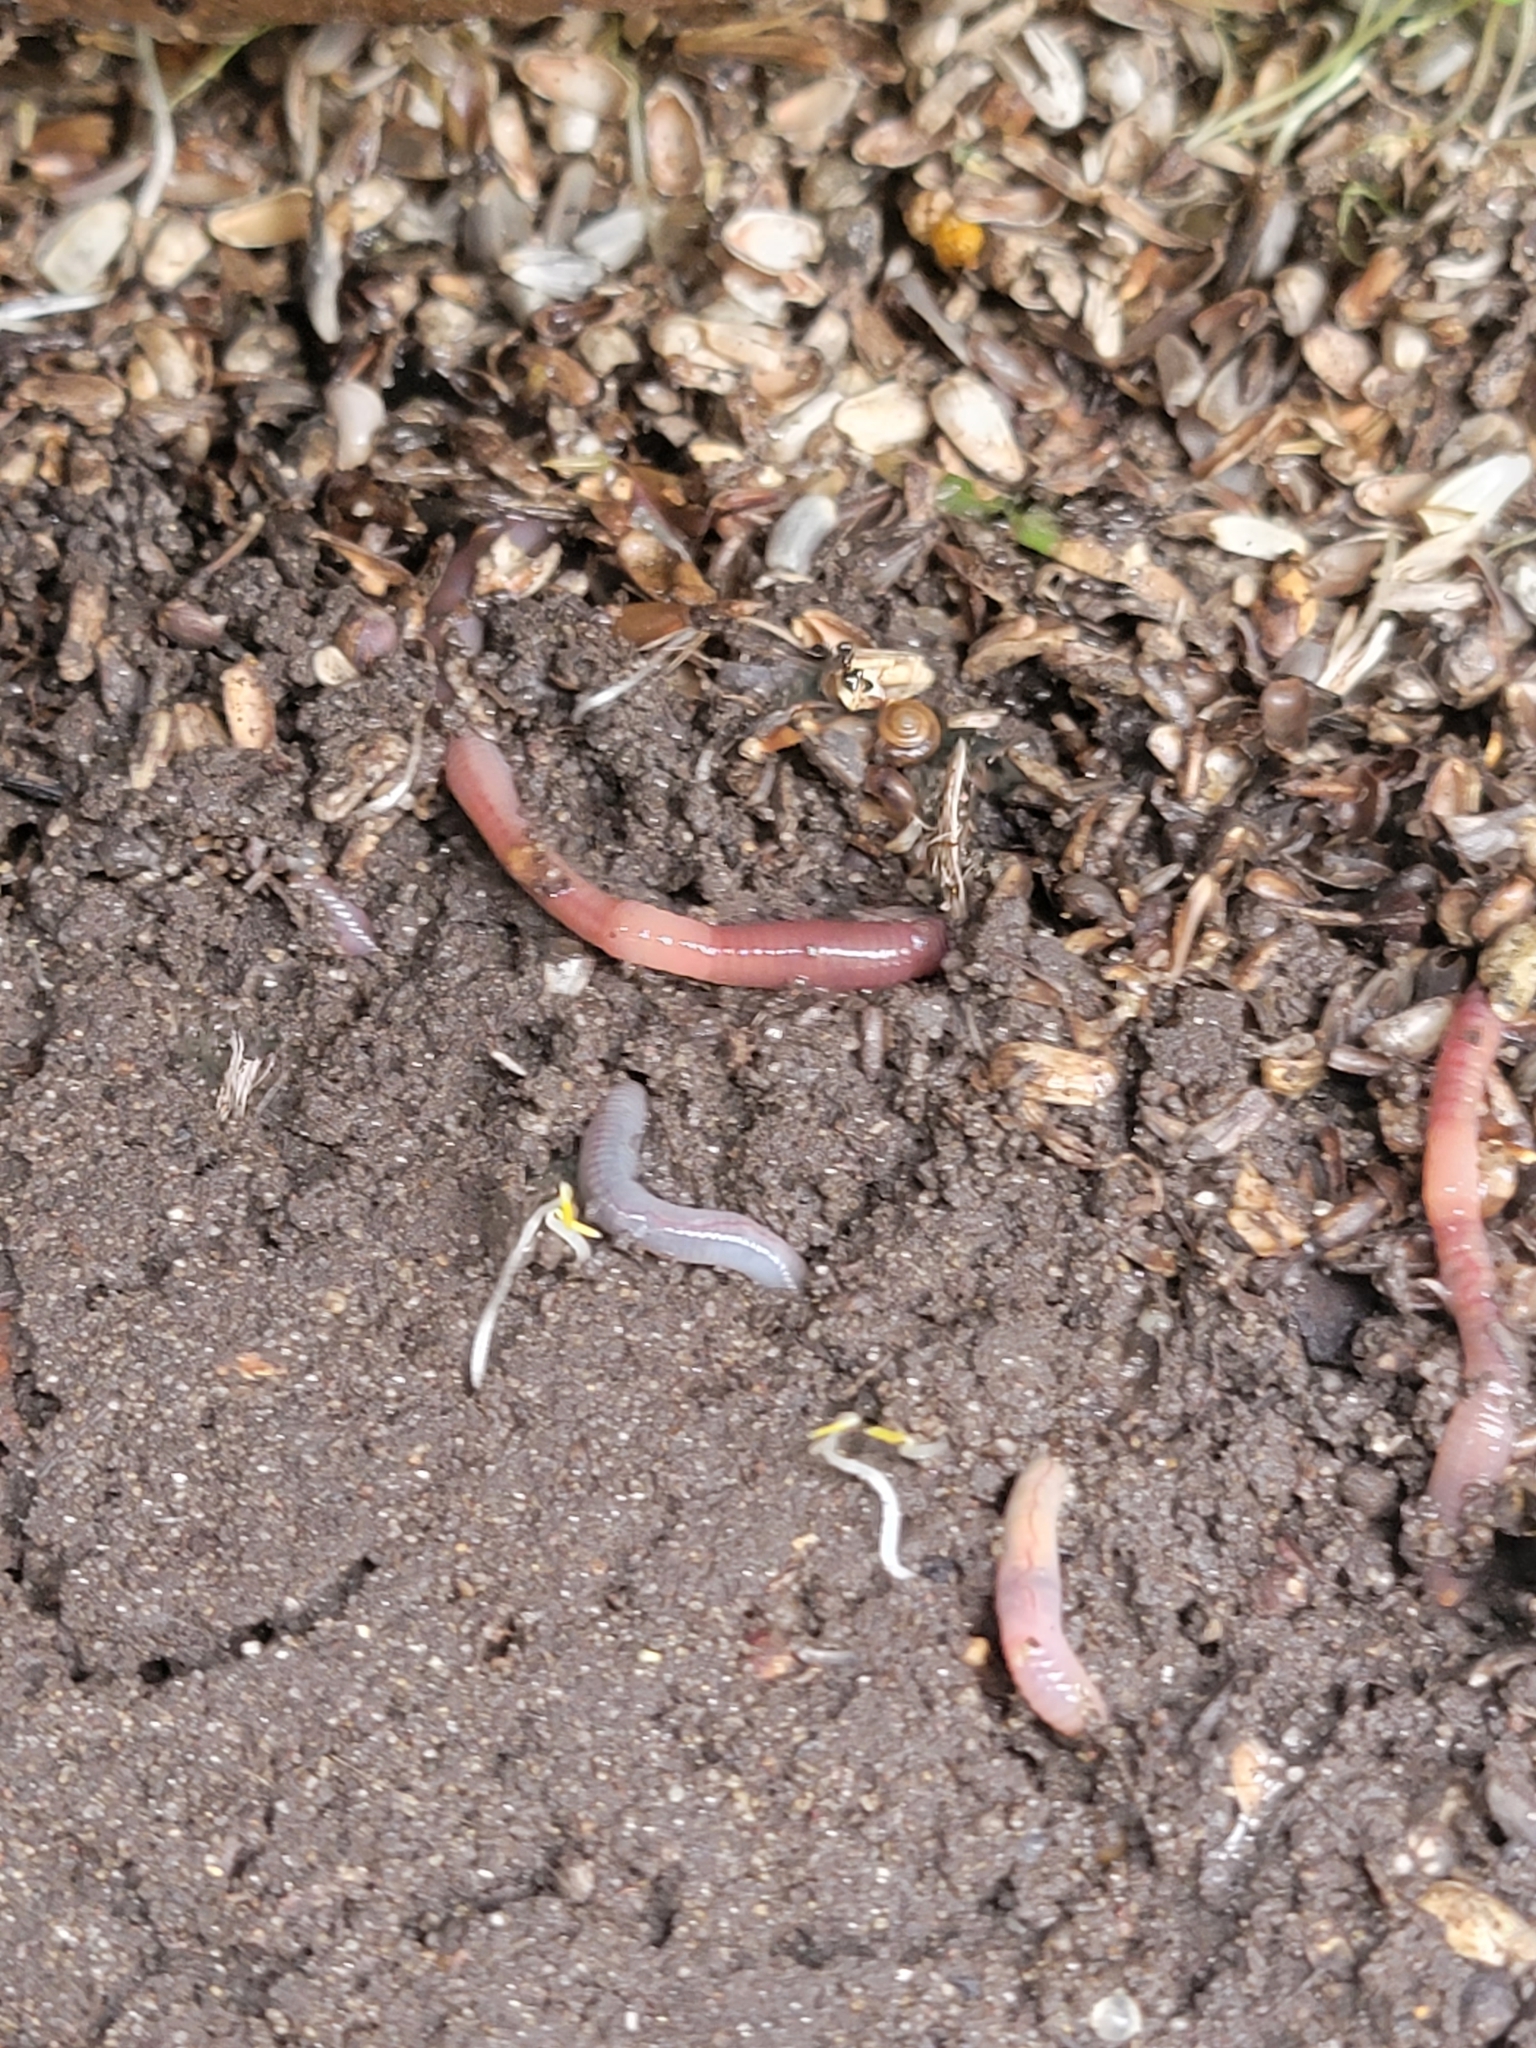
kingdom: Animalia
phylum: Annelida
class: Clitellata
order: Crassiclitellata
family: Lumbricidae
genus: Lumbricus
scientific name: Lumbricus terrestris
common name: Common earthworm
